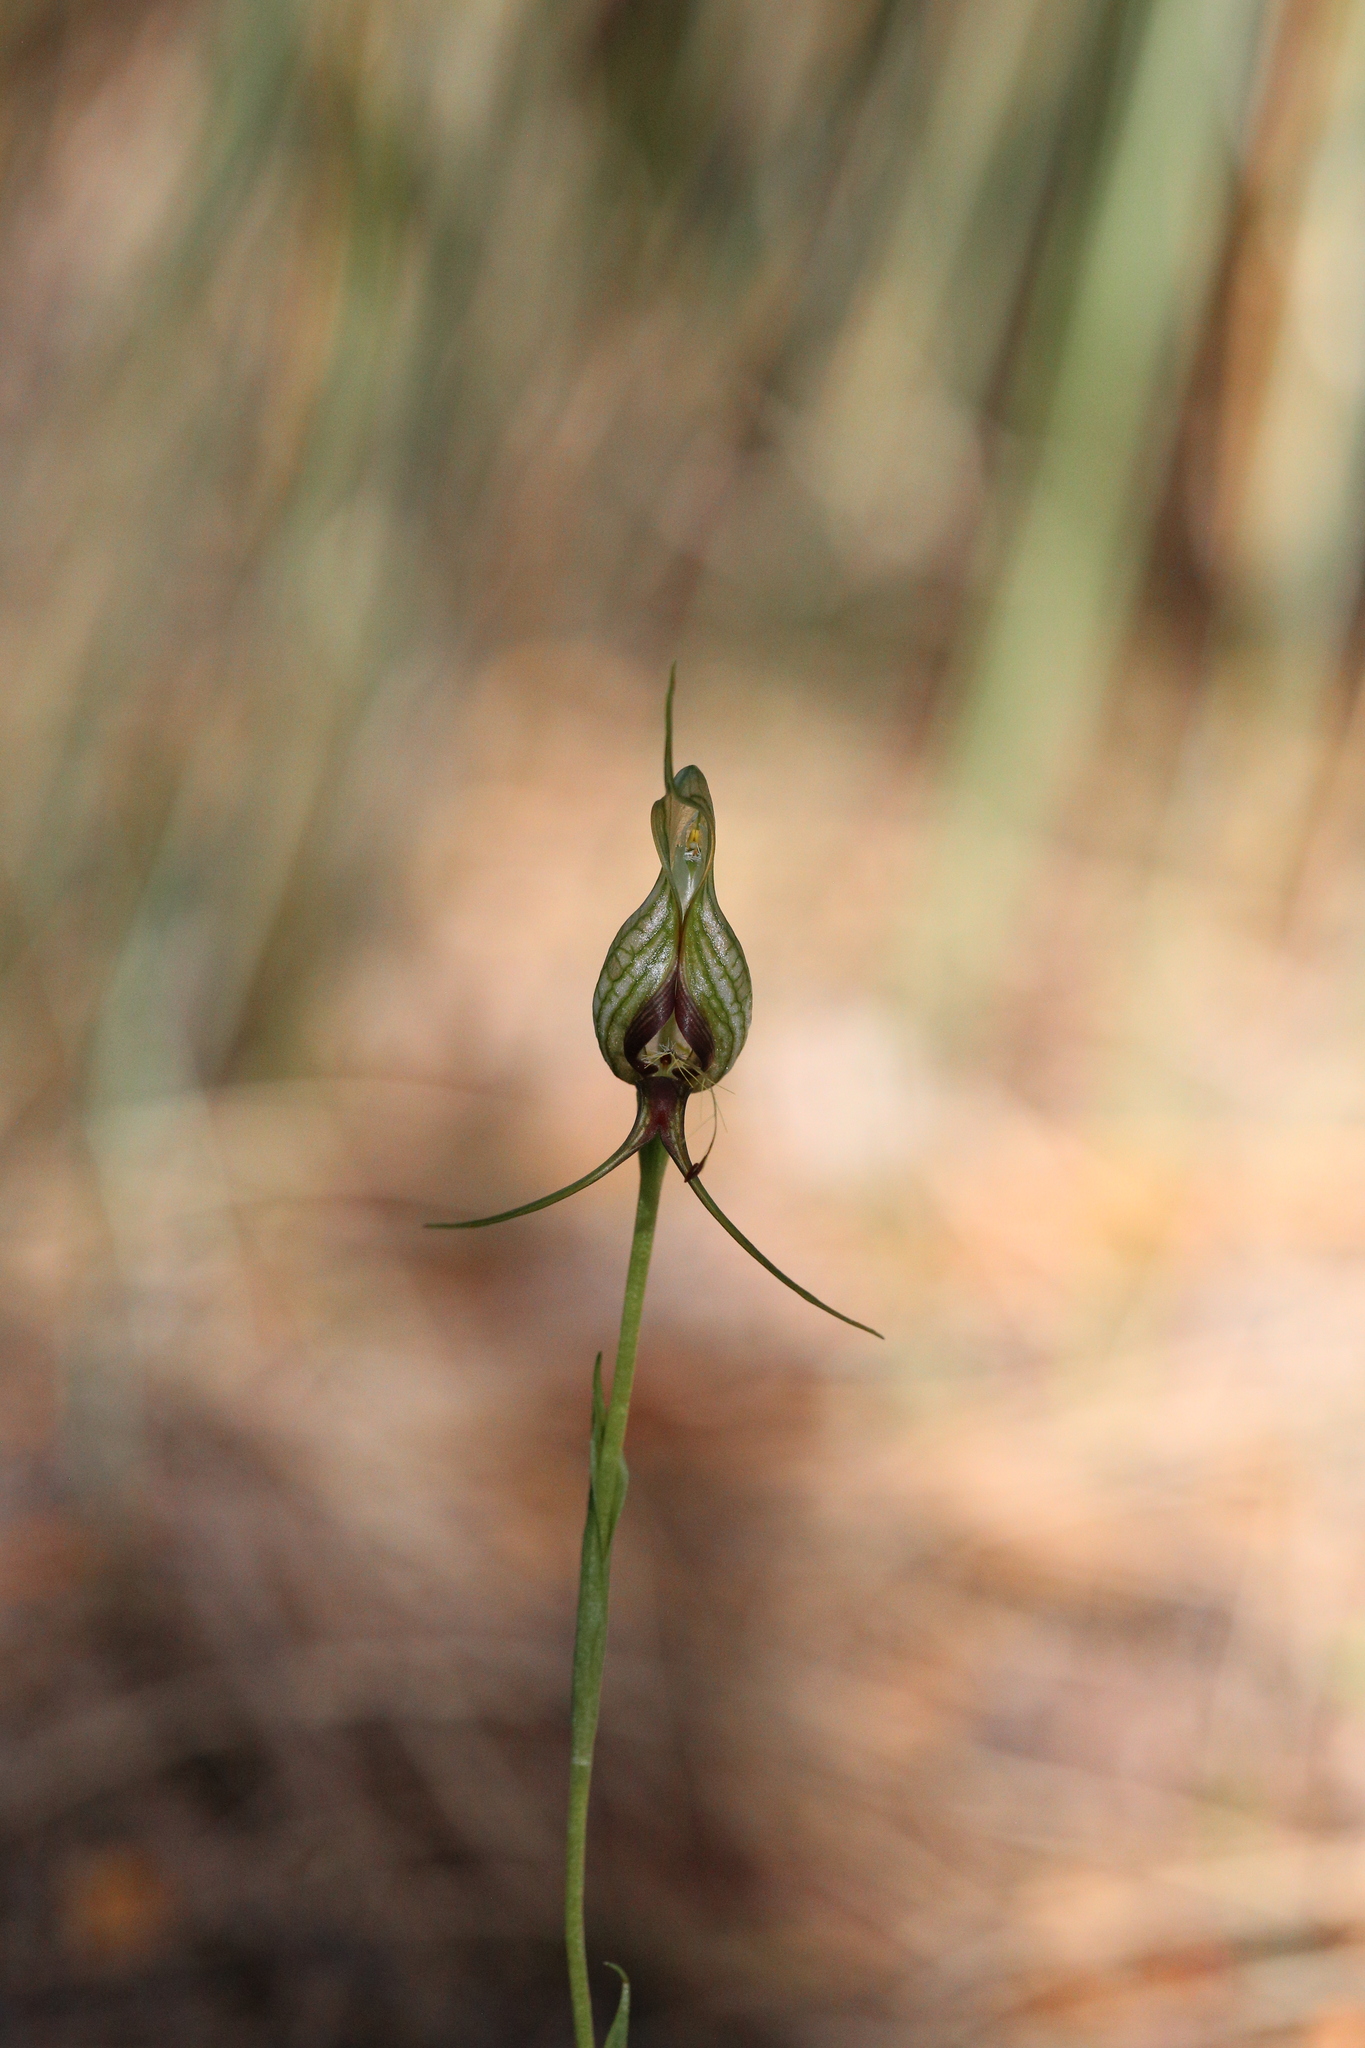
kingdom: Plantae
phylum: Tracheophyta
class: Liliopsida
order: Asparagales
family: Orchidaceae
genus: Pterostylis
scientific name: Pterostylis barbata
